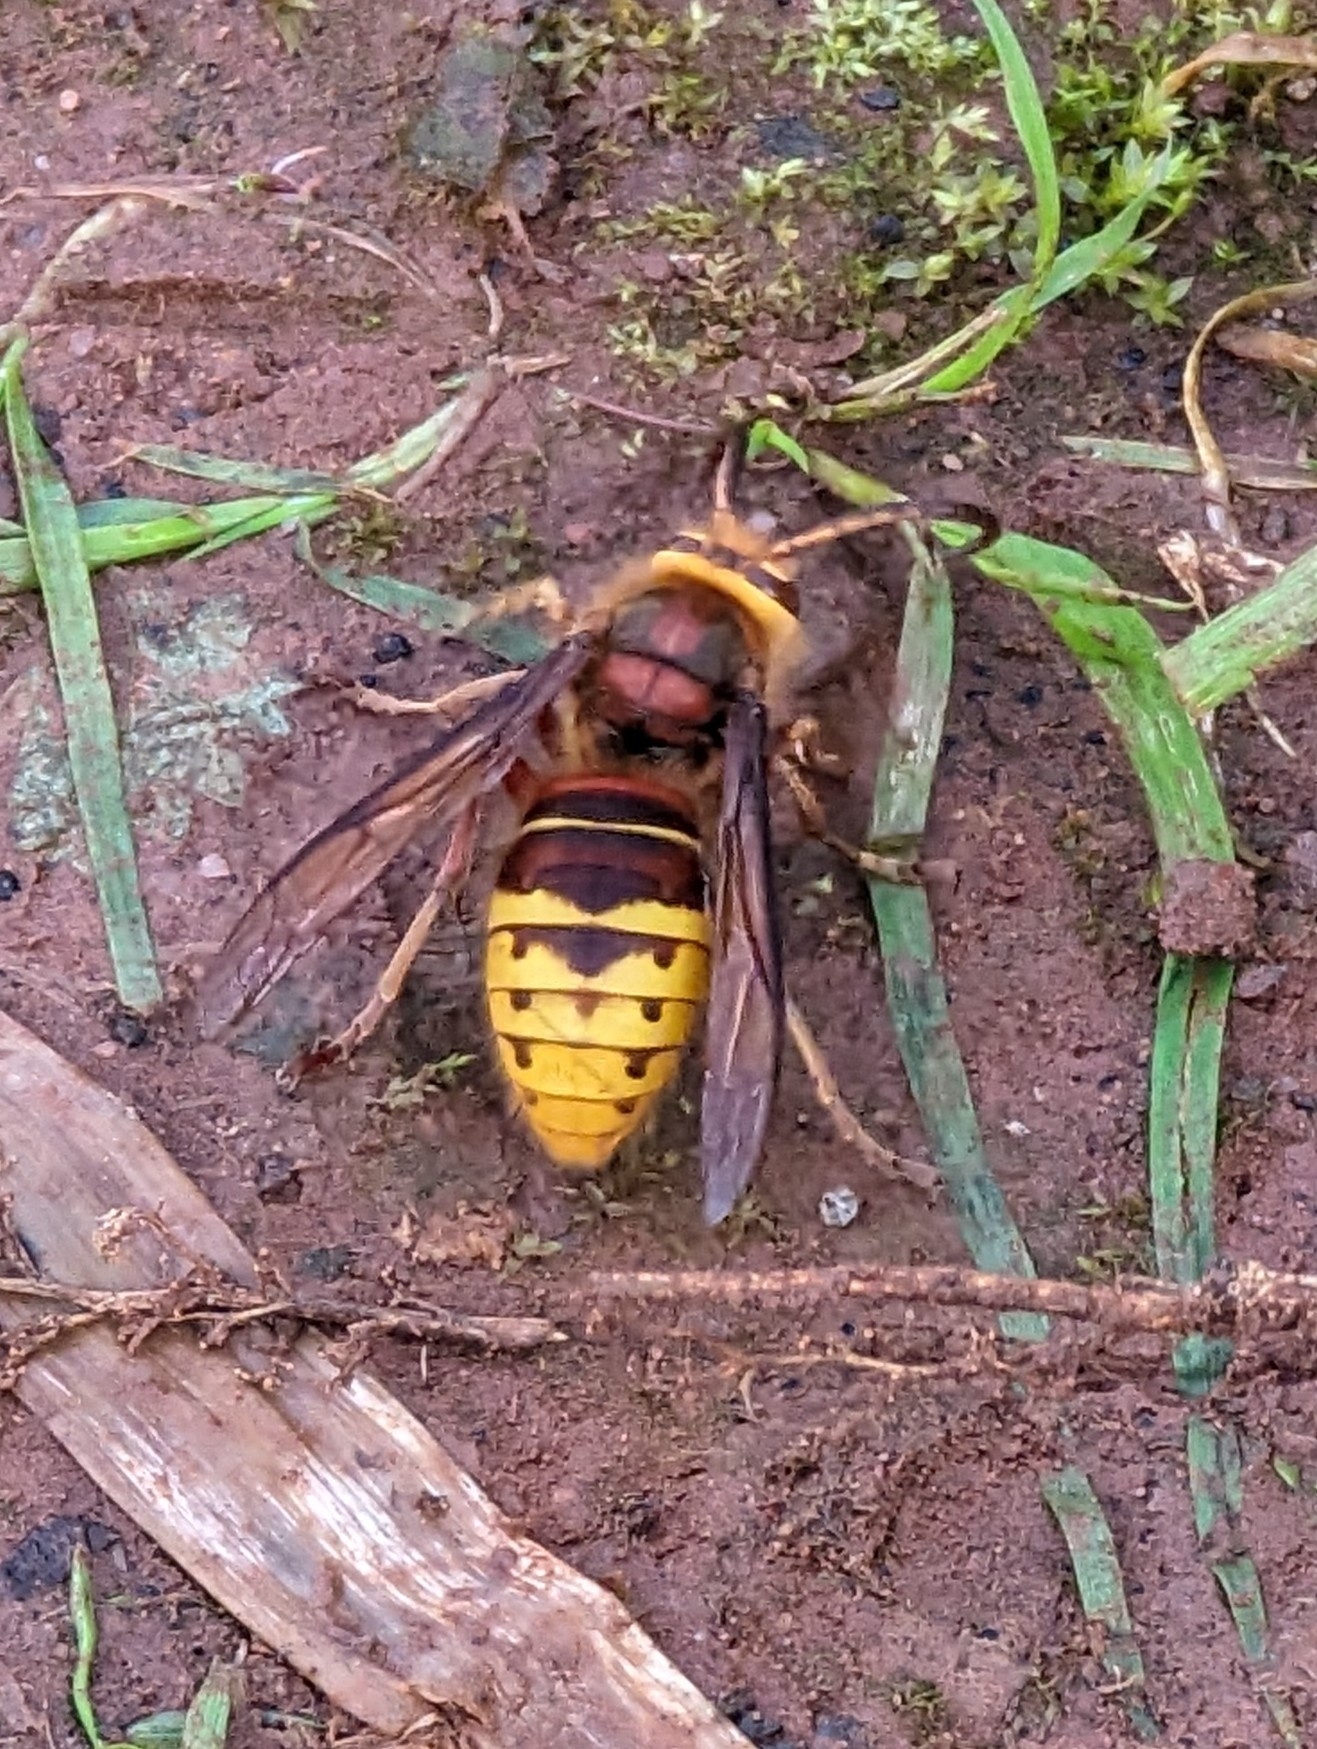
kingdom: Animalia
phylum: Arthropoda
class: Insecta
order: Hymenoptera
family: Vespidae
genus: Vespa
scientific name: Vespa crabro
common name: Hornet
